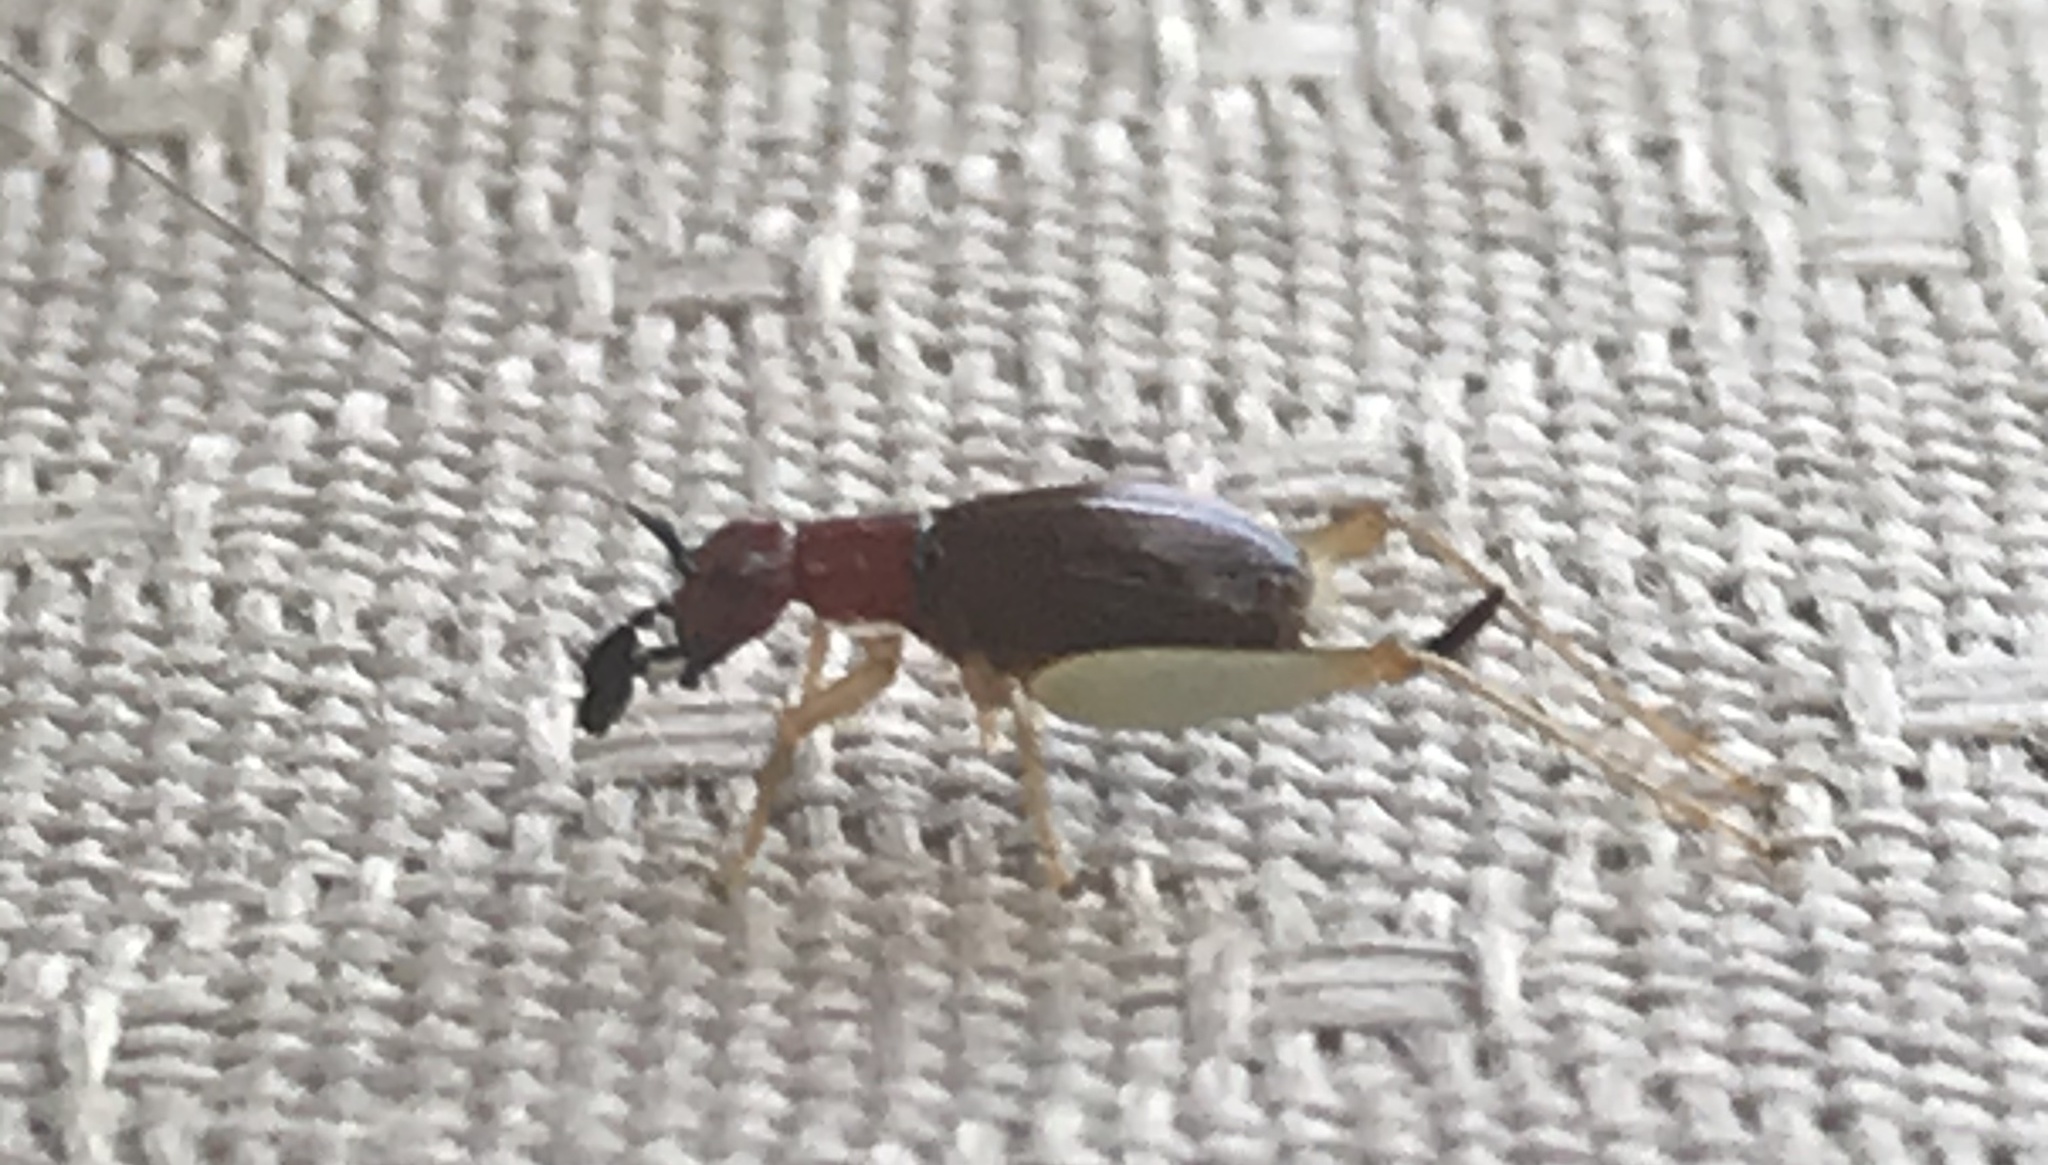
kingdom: Animalia
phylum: Arthropoda
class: Insecta
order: Orthoptera
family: Trigonidiidae
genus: Phyllopalpus
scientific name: Phyllopalpus pulchellus
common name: Handsome trig
